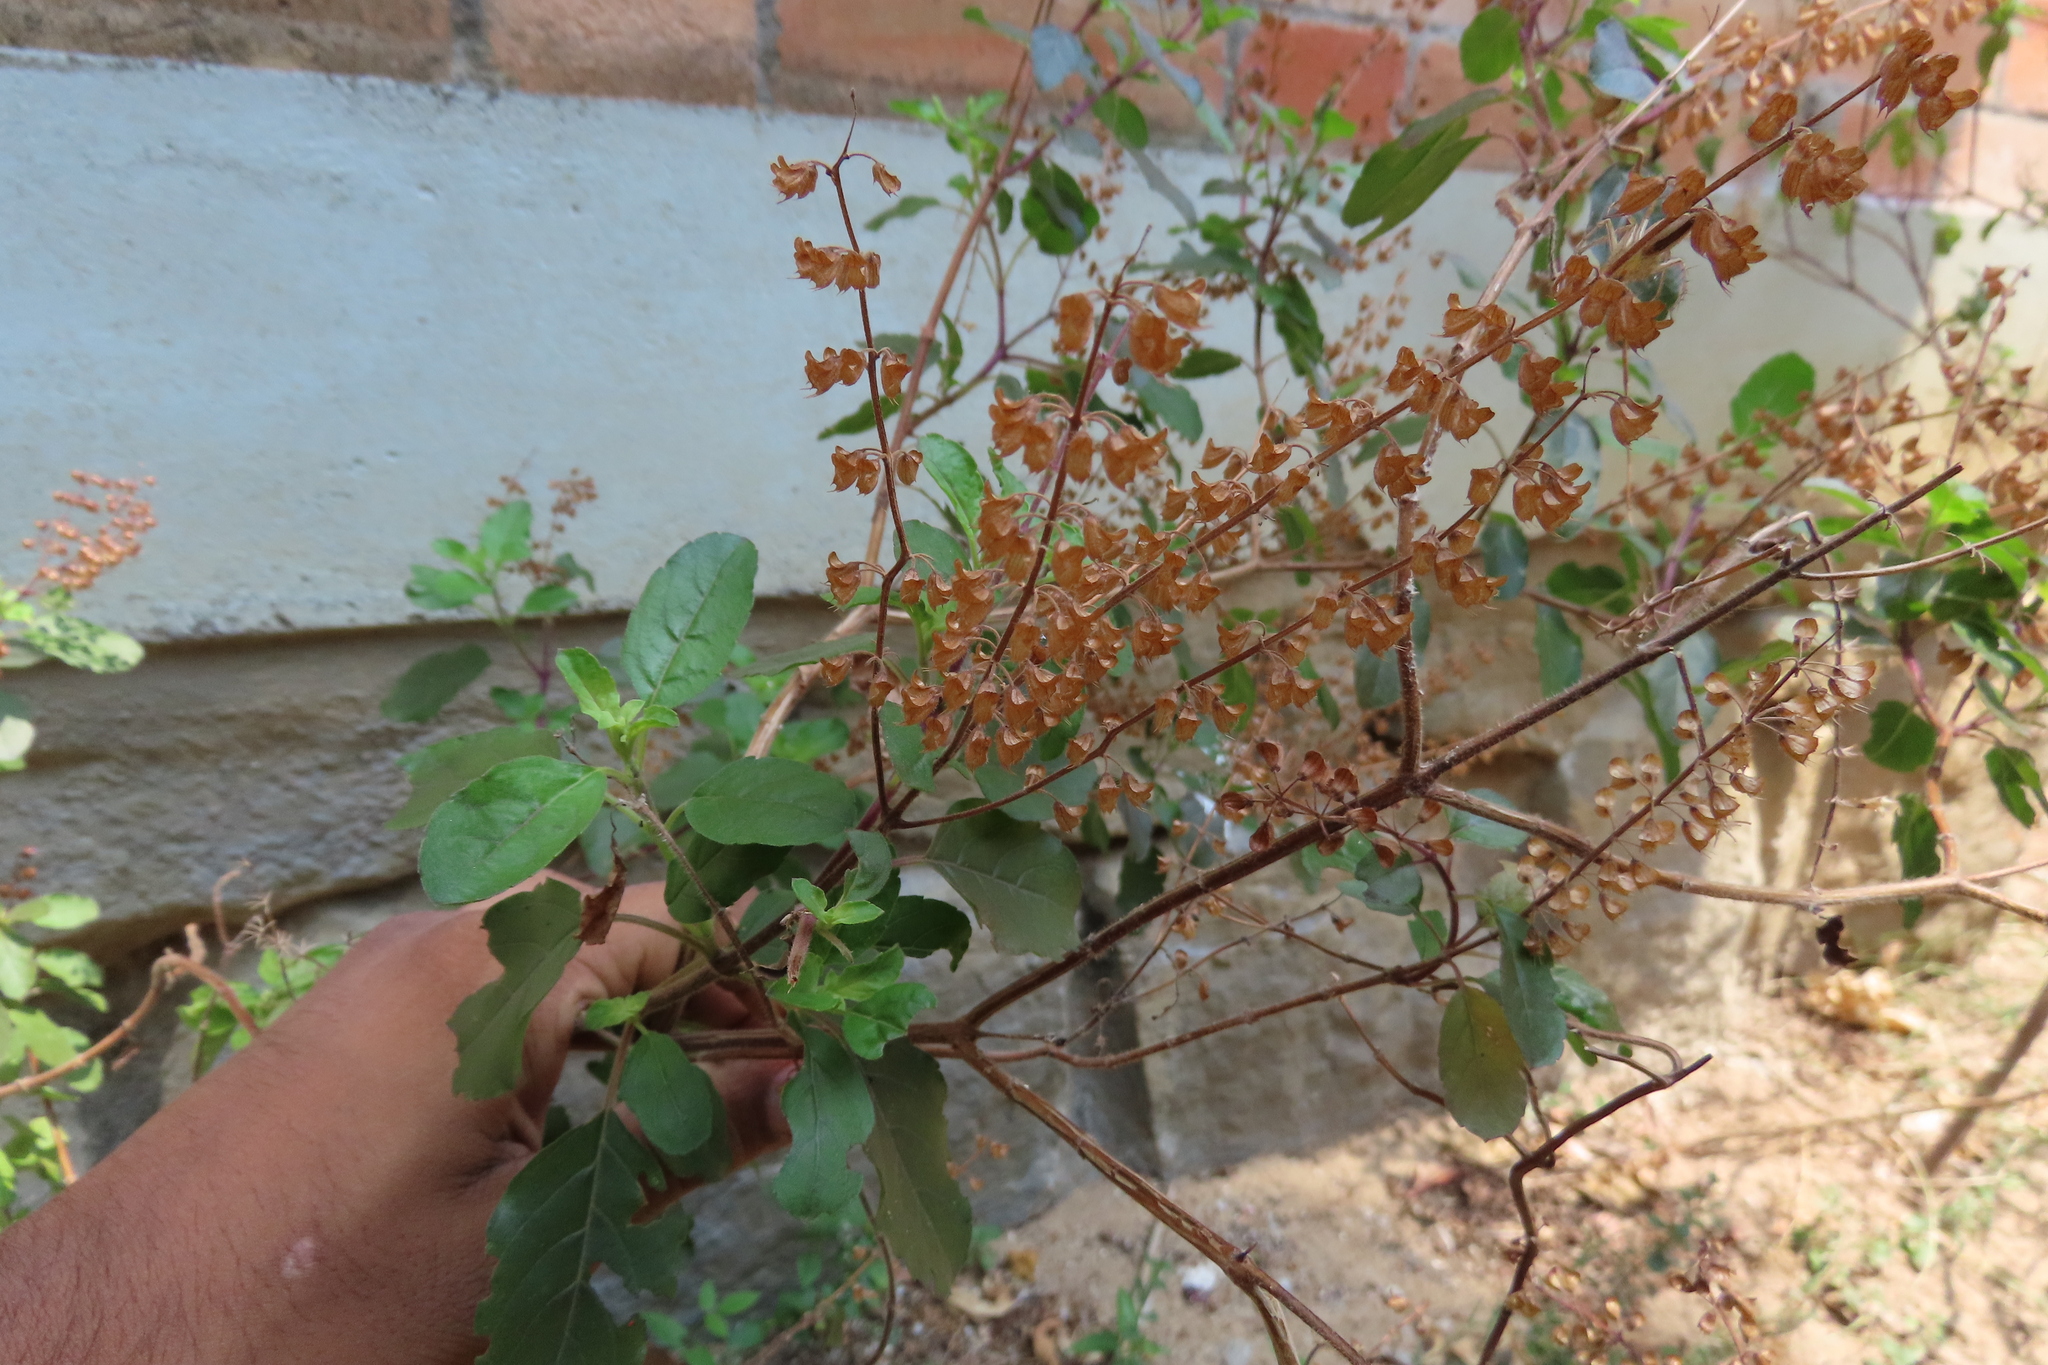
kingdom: Plantae
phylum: Tracheophyta
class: Magnoliopsida
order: Lamiales
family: Lamiaceae
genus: Ocimum
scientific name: Ocimum tenuiflorum
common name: Sacred basil
